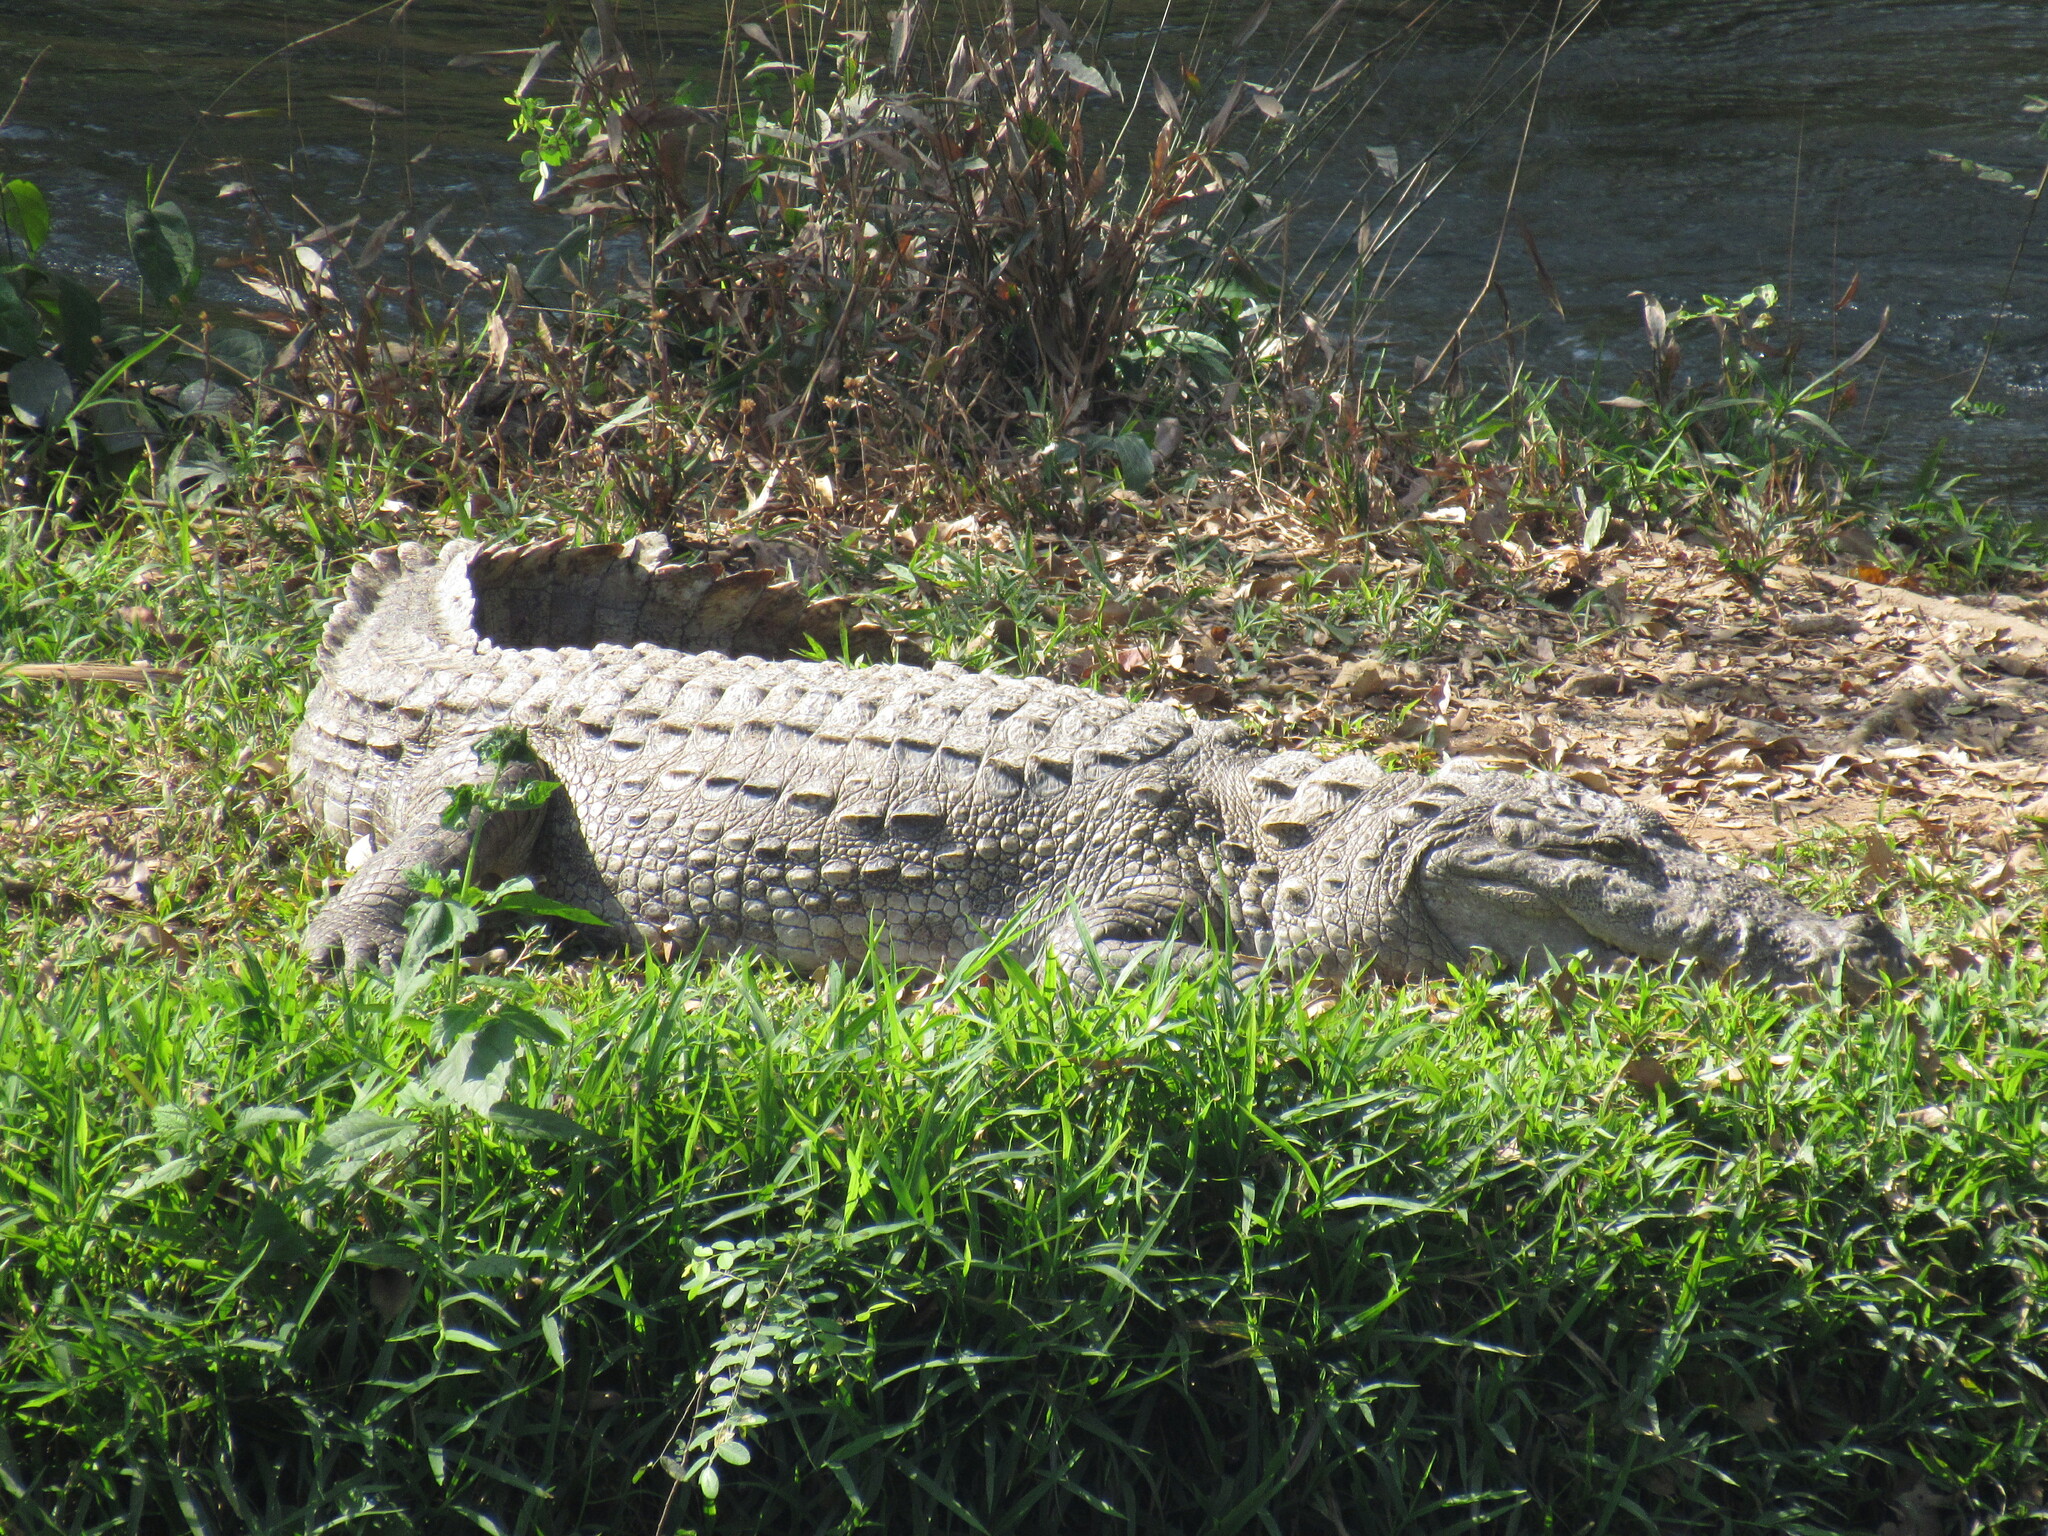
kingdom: Animalia
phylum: Chordata
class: Crocodylia
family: Crocodylidae
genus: Crocodylus
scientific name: Crocodylus palustris
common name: Mugger crocodile
